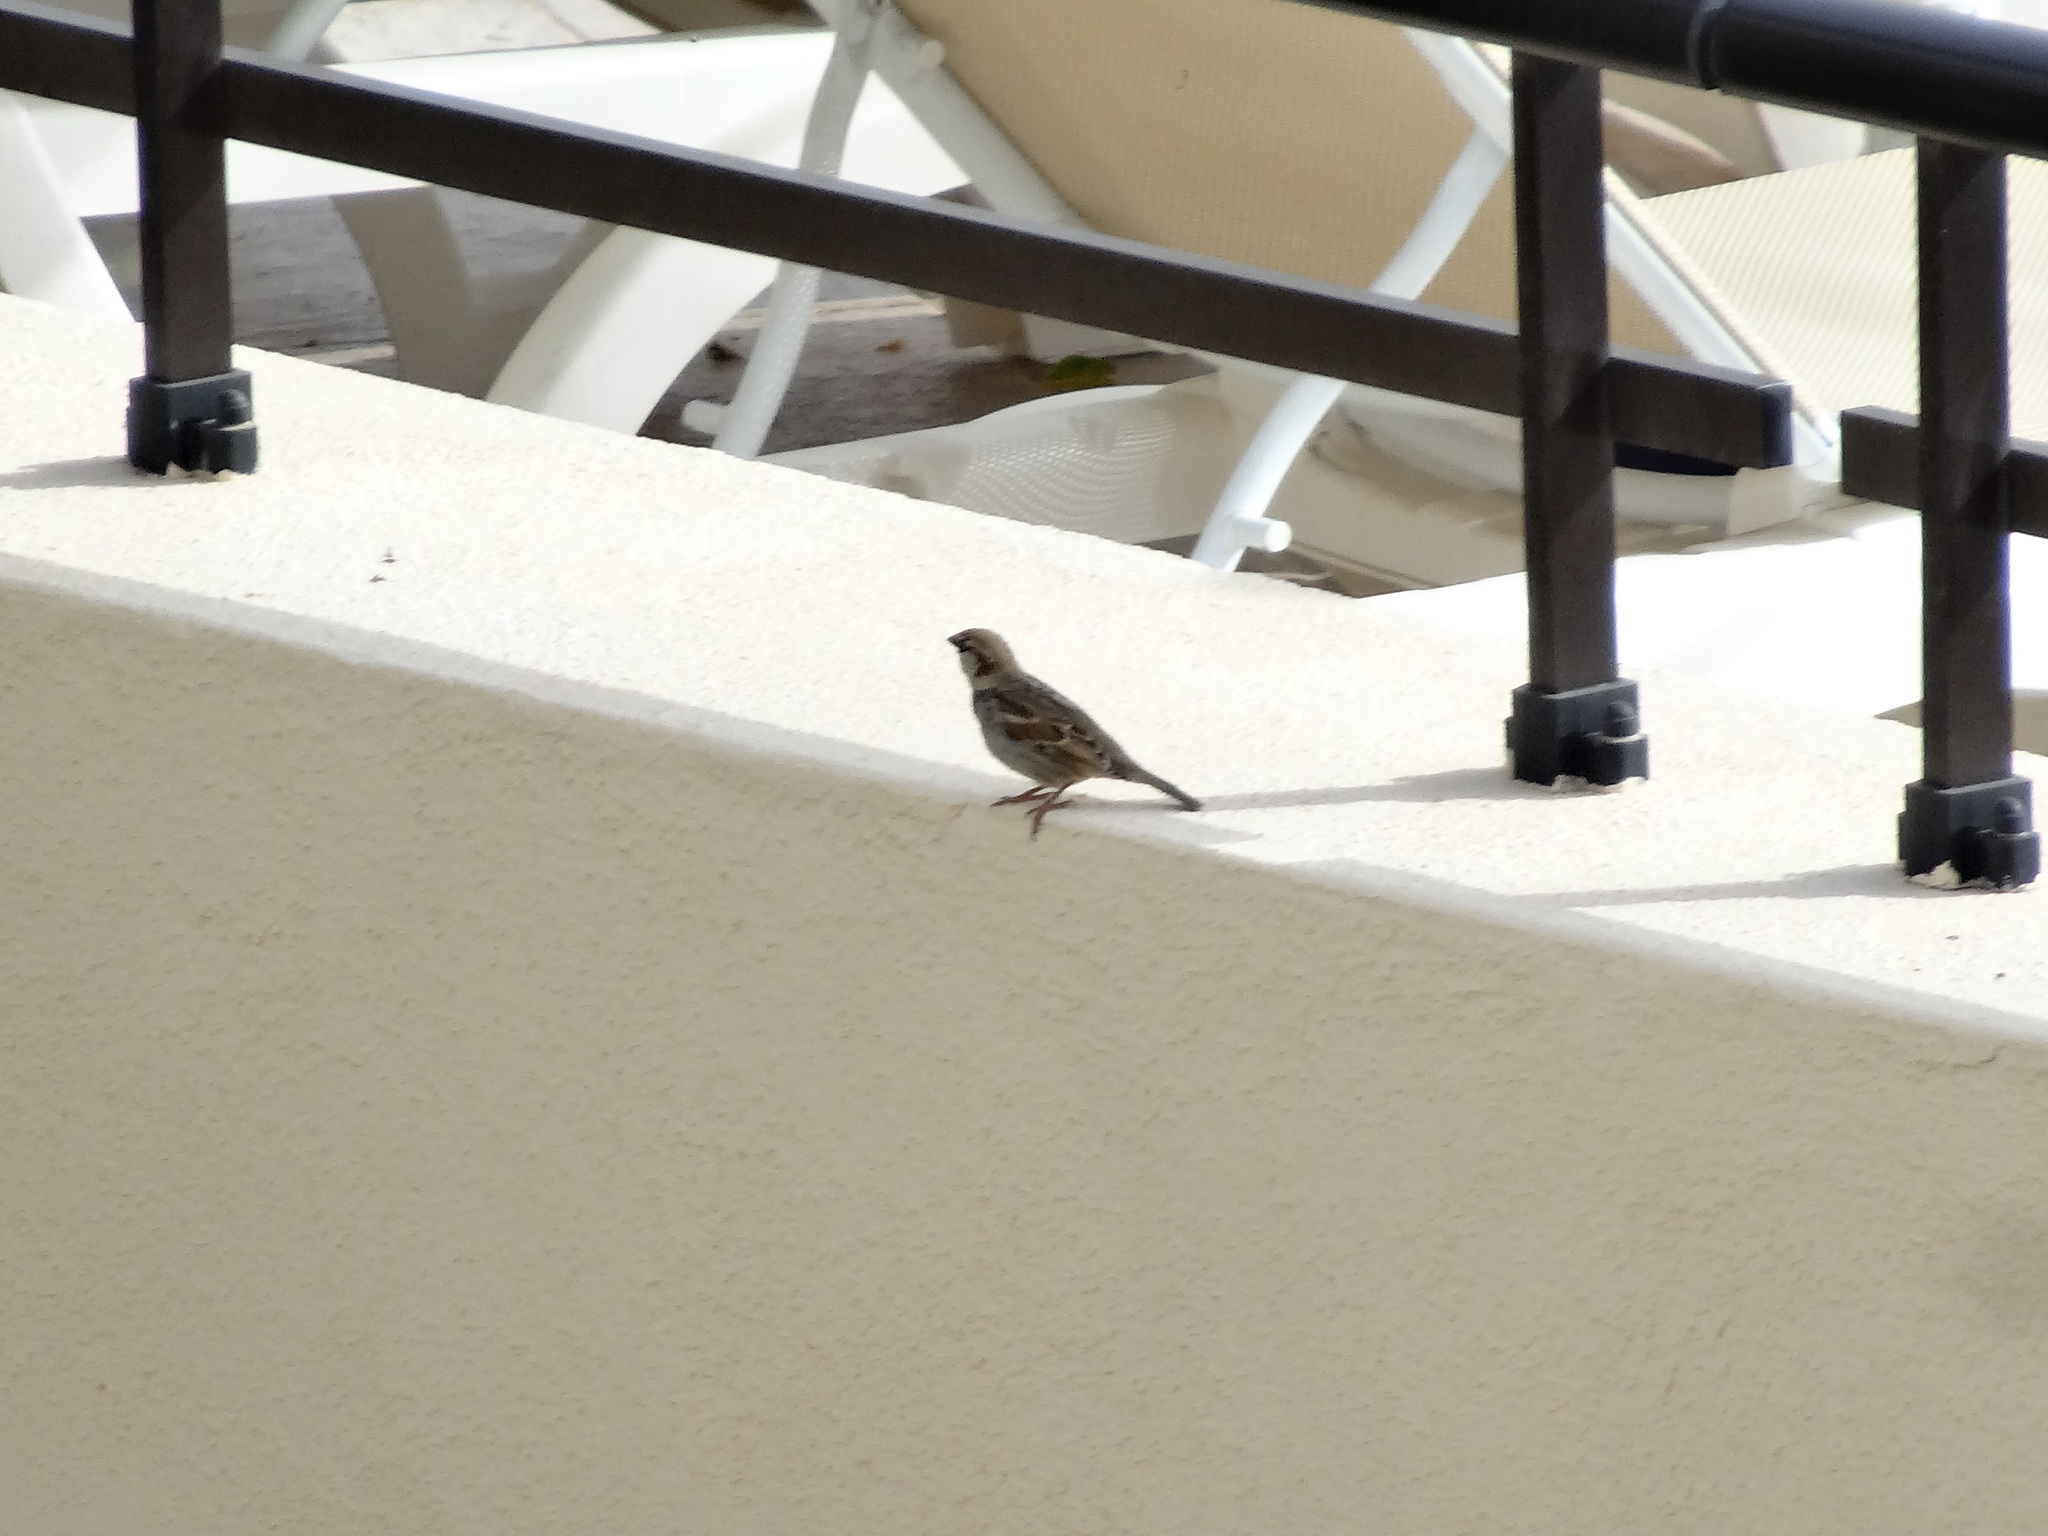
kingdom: Animalia
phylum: Chordata
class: Aves
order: Passeriformes
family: Passeridae
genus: Passer
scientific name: Passer hispaniolensis
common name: Spanish sparrow
